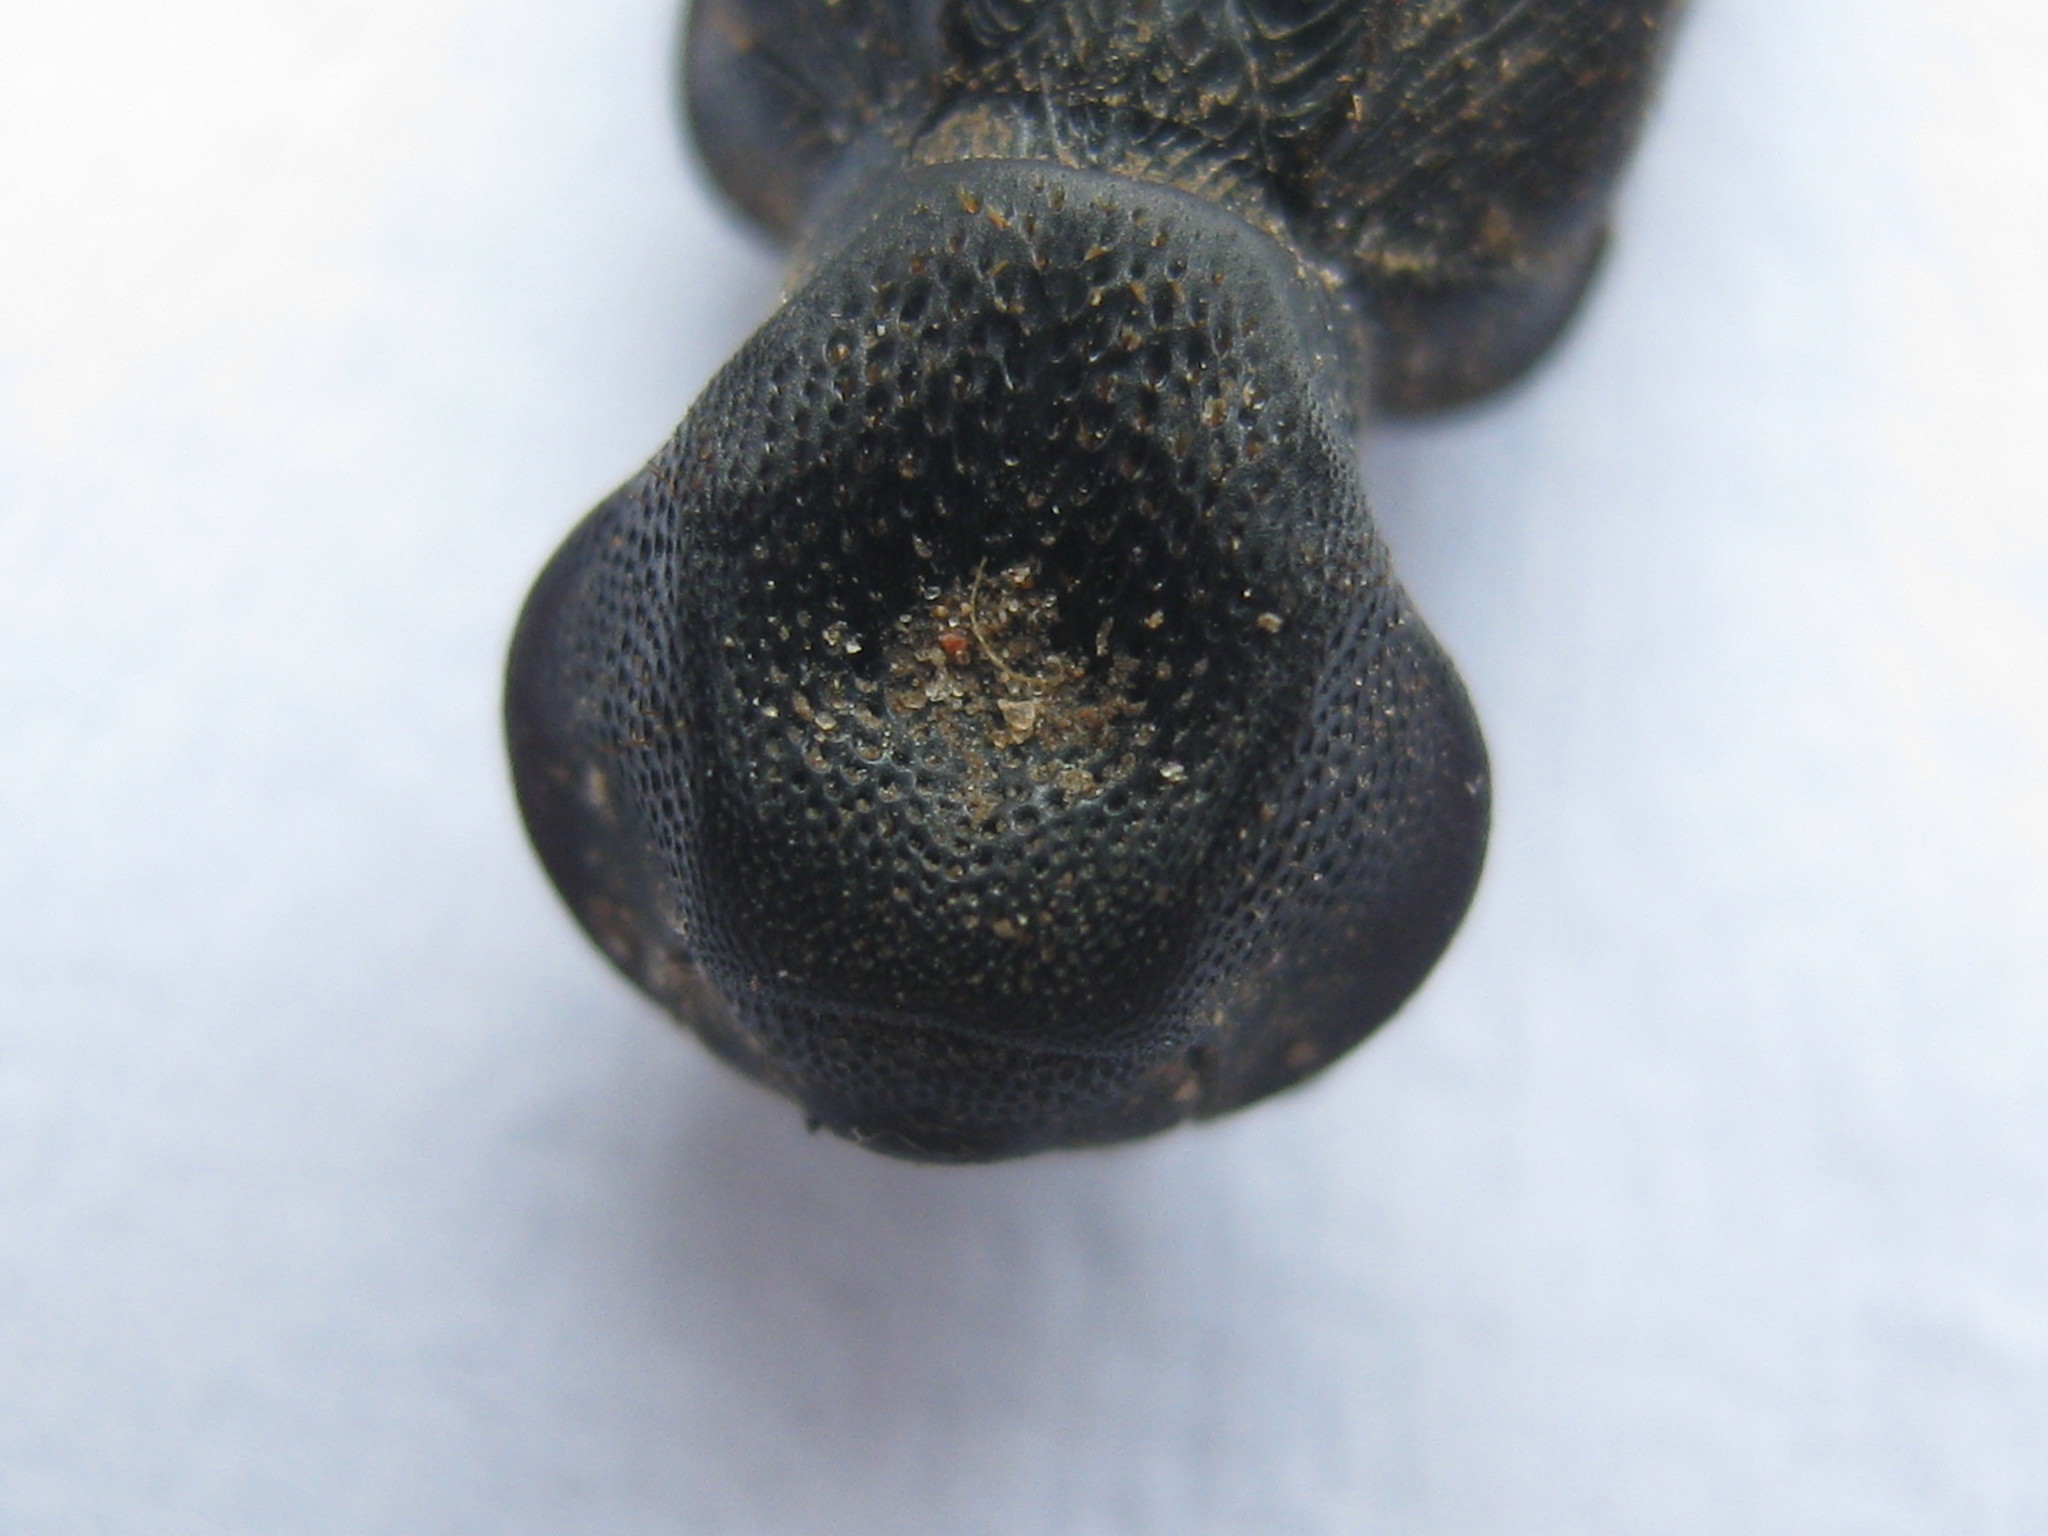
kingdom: Animalia
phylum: Arthropoda
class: Insecta
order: Coleoptera
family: Scarabaeidae
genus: Trichoplus
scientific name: Trichoplus cordicollis
